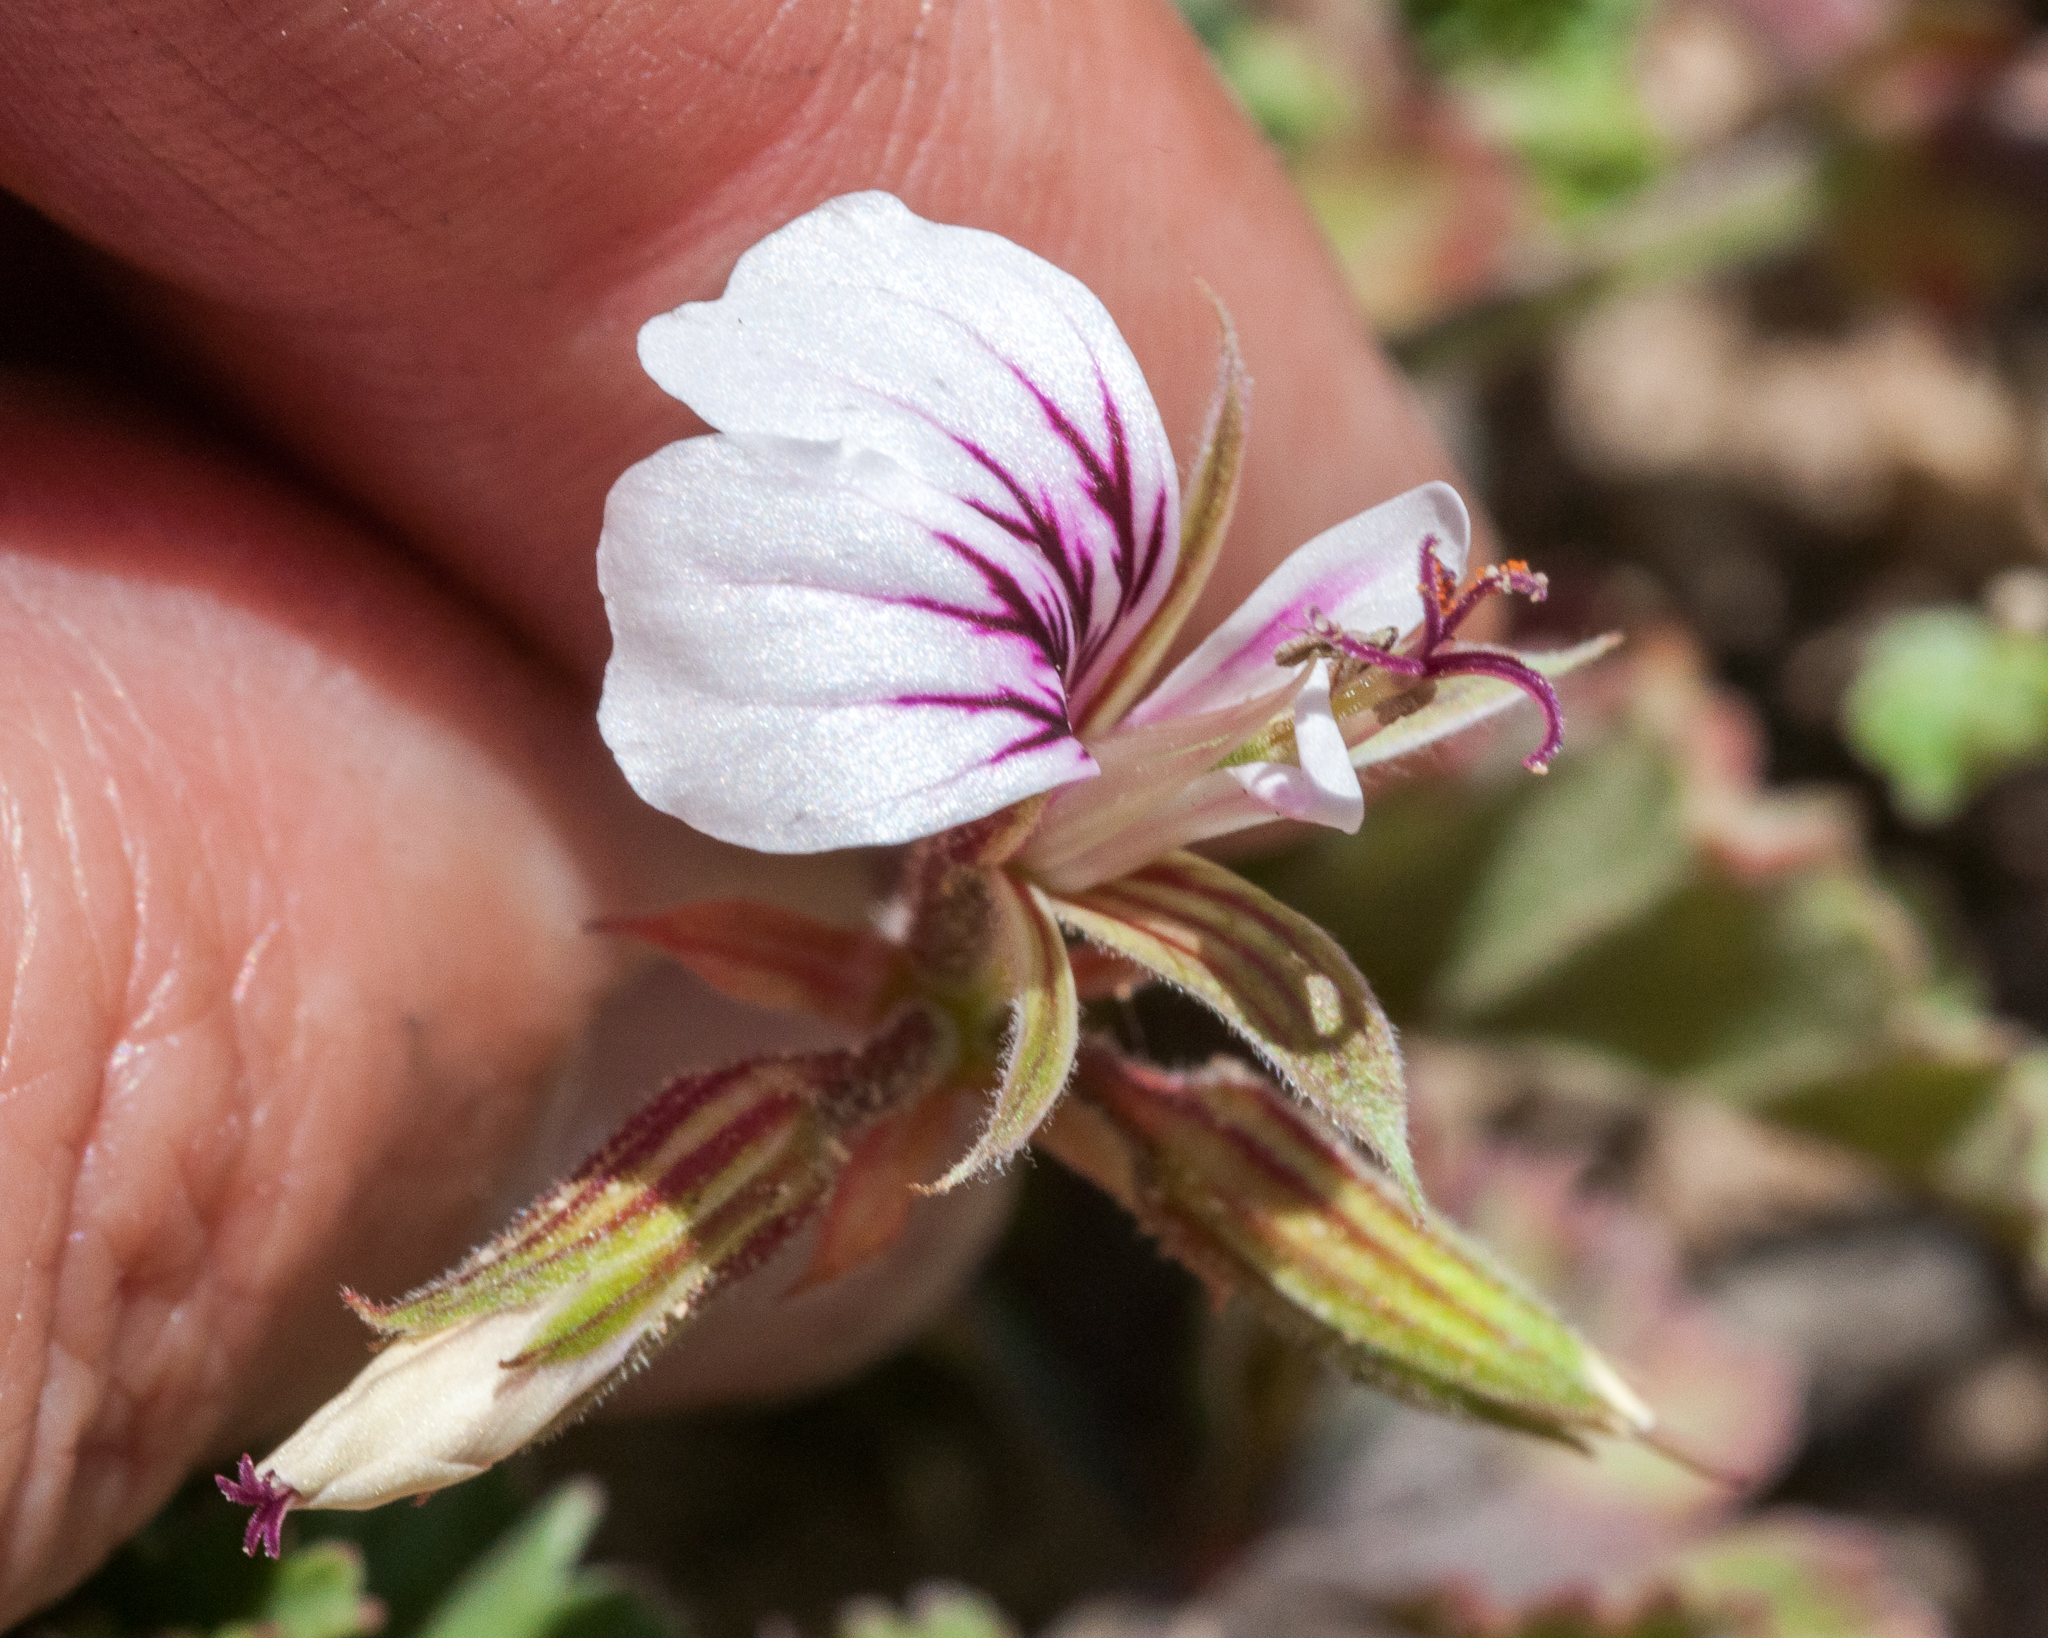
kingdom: Plantae
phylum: Tracheophyta
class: Magnoliopsida
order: Geraniales
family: Geraniaceae
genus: Pelargonium
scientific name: Pelargonium candicans
